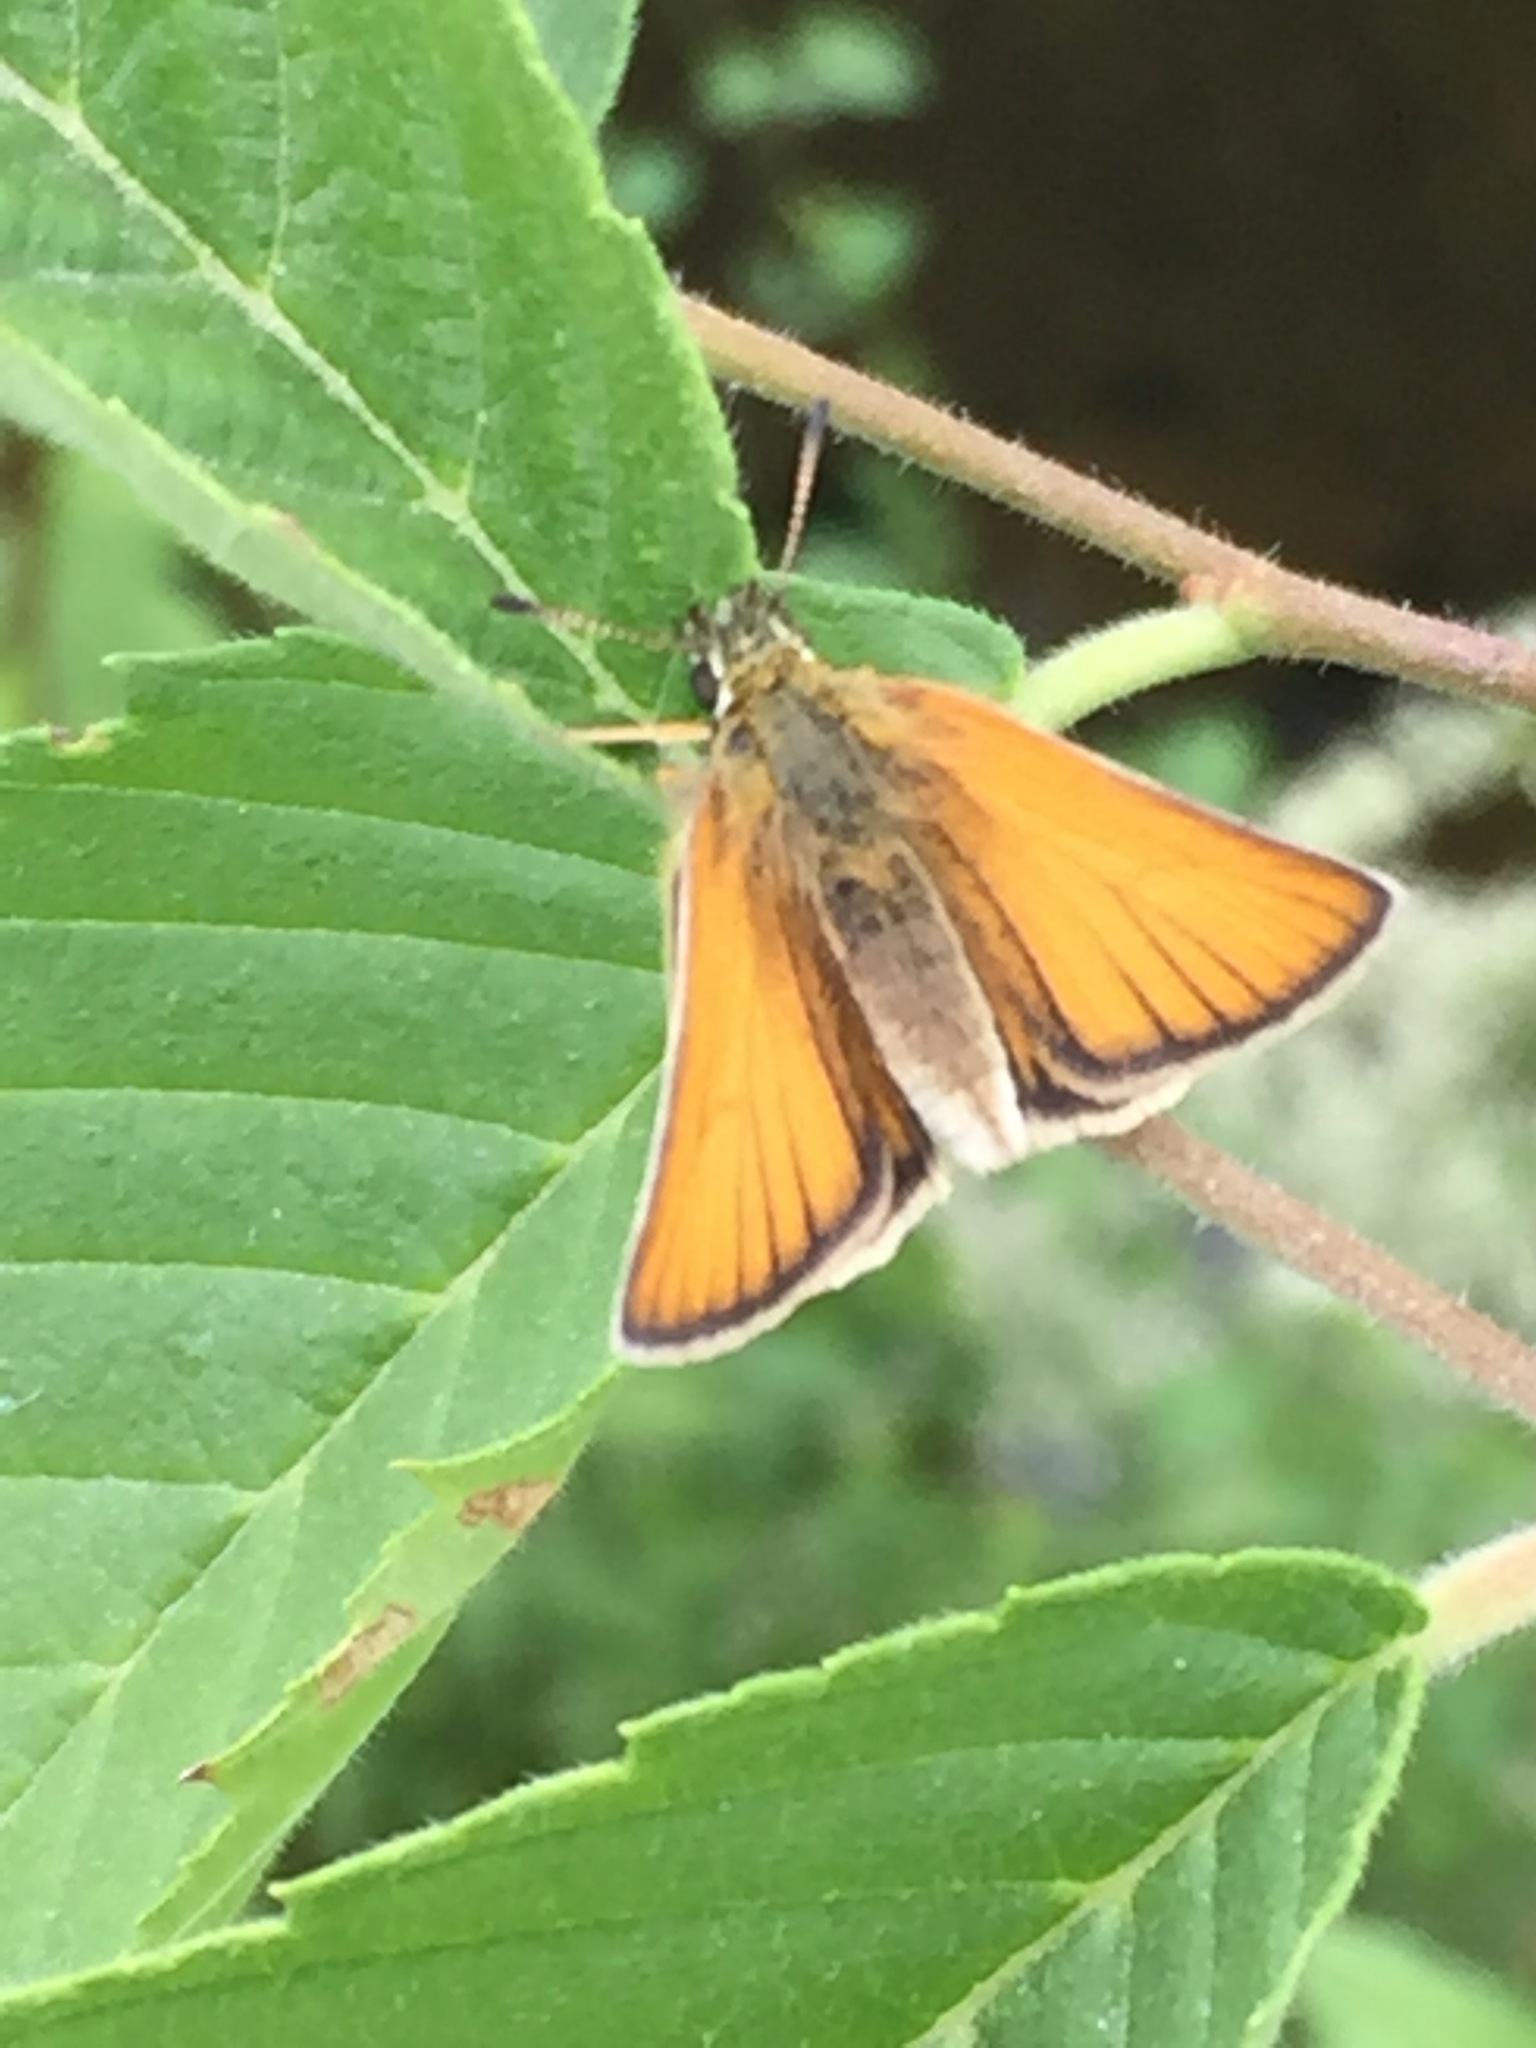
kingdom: Animalia
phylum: Arthropoda
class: Insecta
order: Lepidoptera
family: Hesperiidae
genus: Thymelicus
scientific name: Thymelicus lineola
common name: Essex skipper
